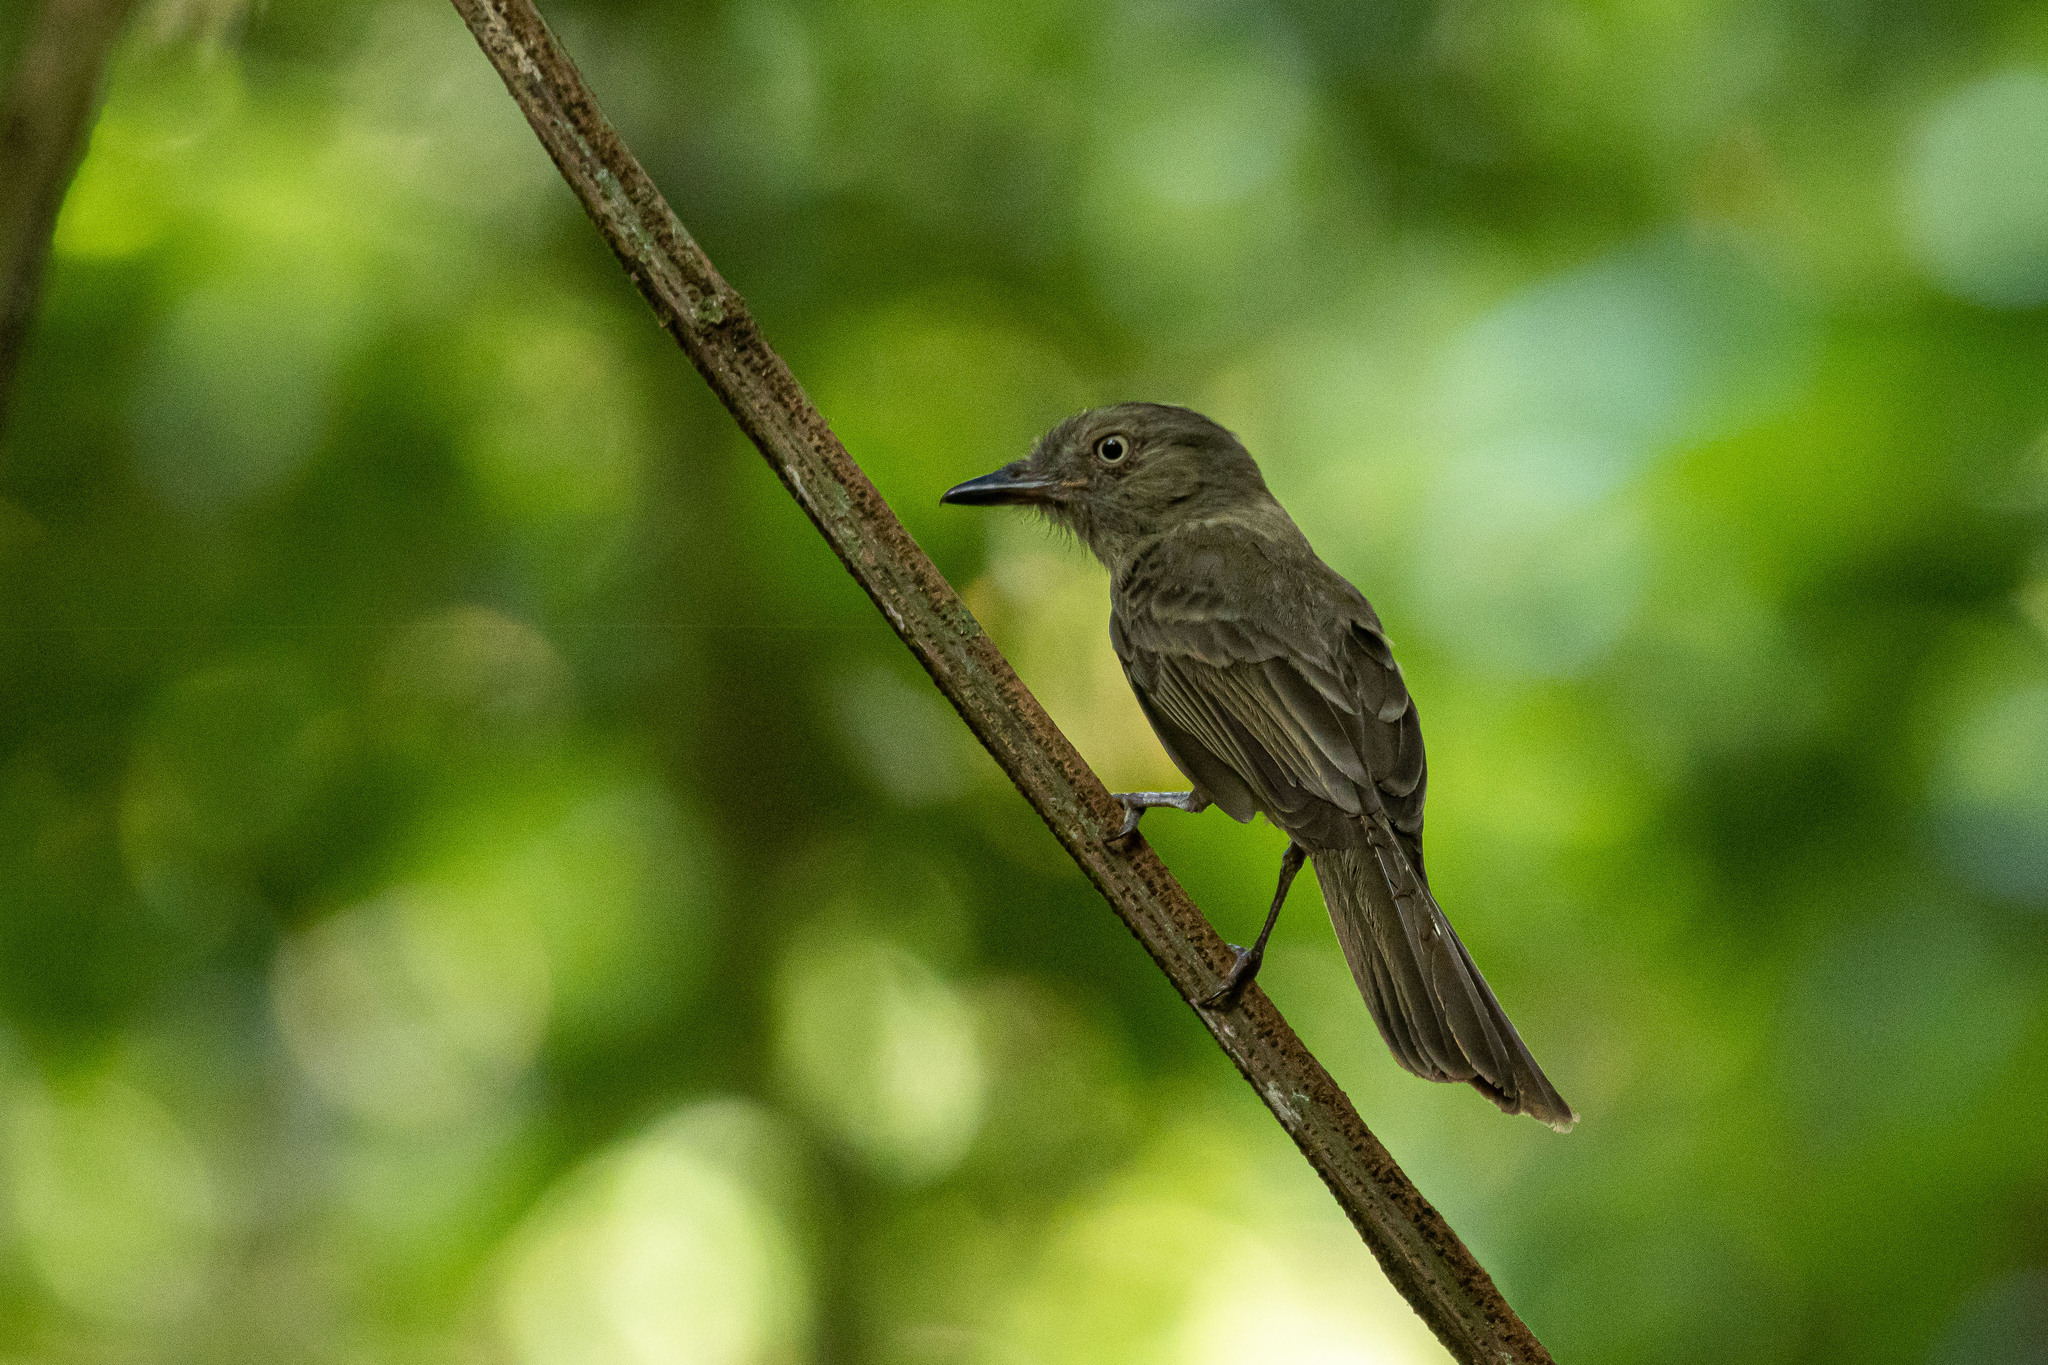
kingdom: Animalia
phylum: Chordata
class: Aves
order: Passeriformes
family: Tyrannidae
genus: Rhytipterna
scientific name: Rhytipterna simplex
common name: Greyish mourner
